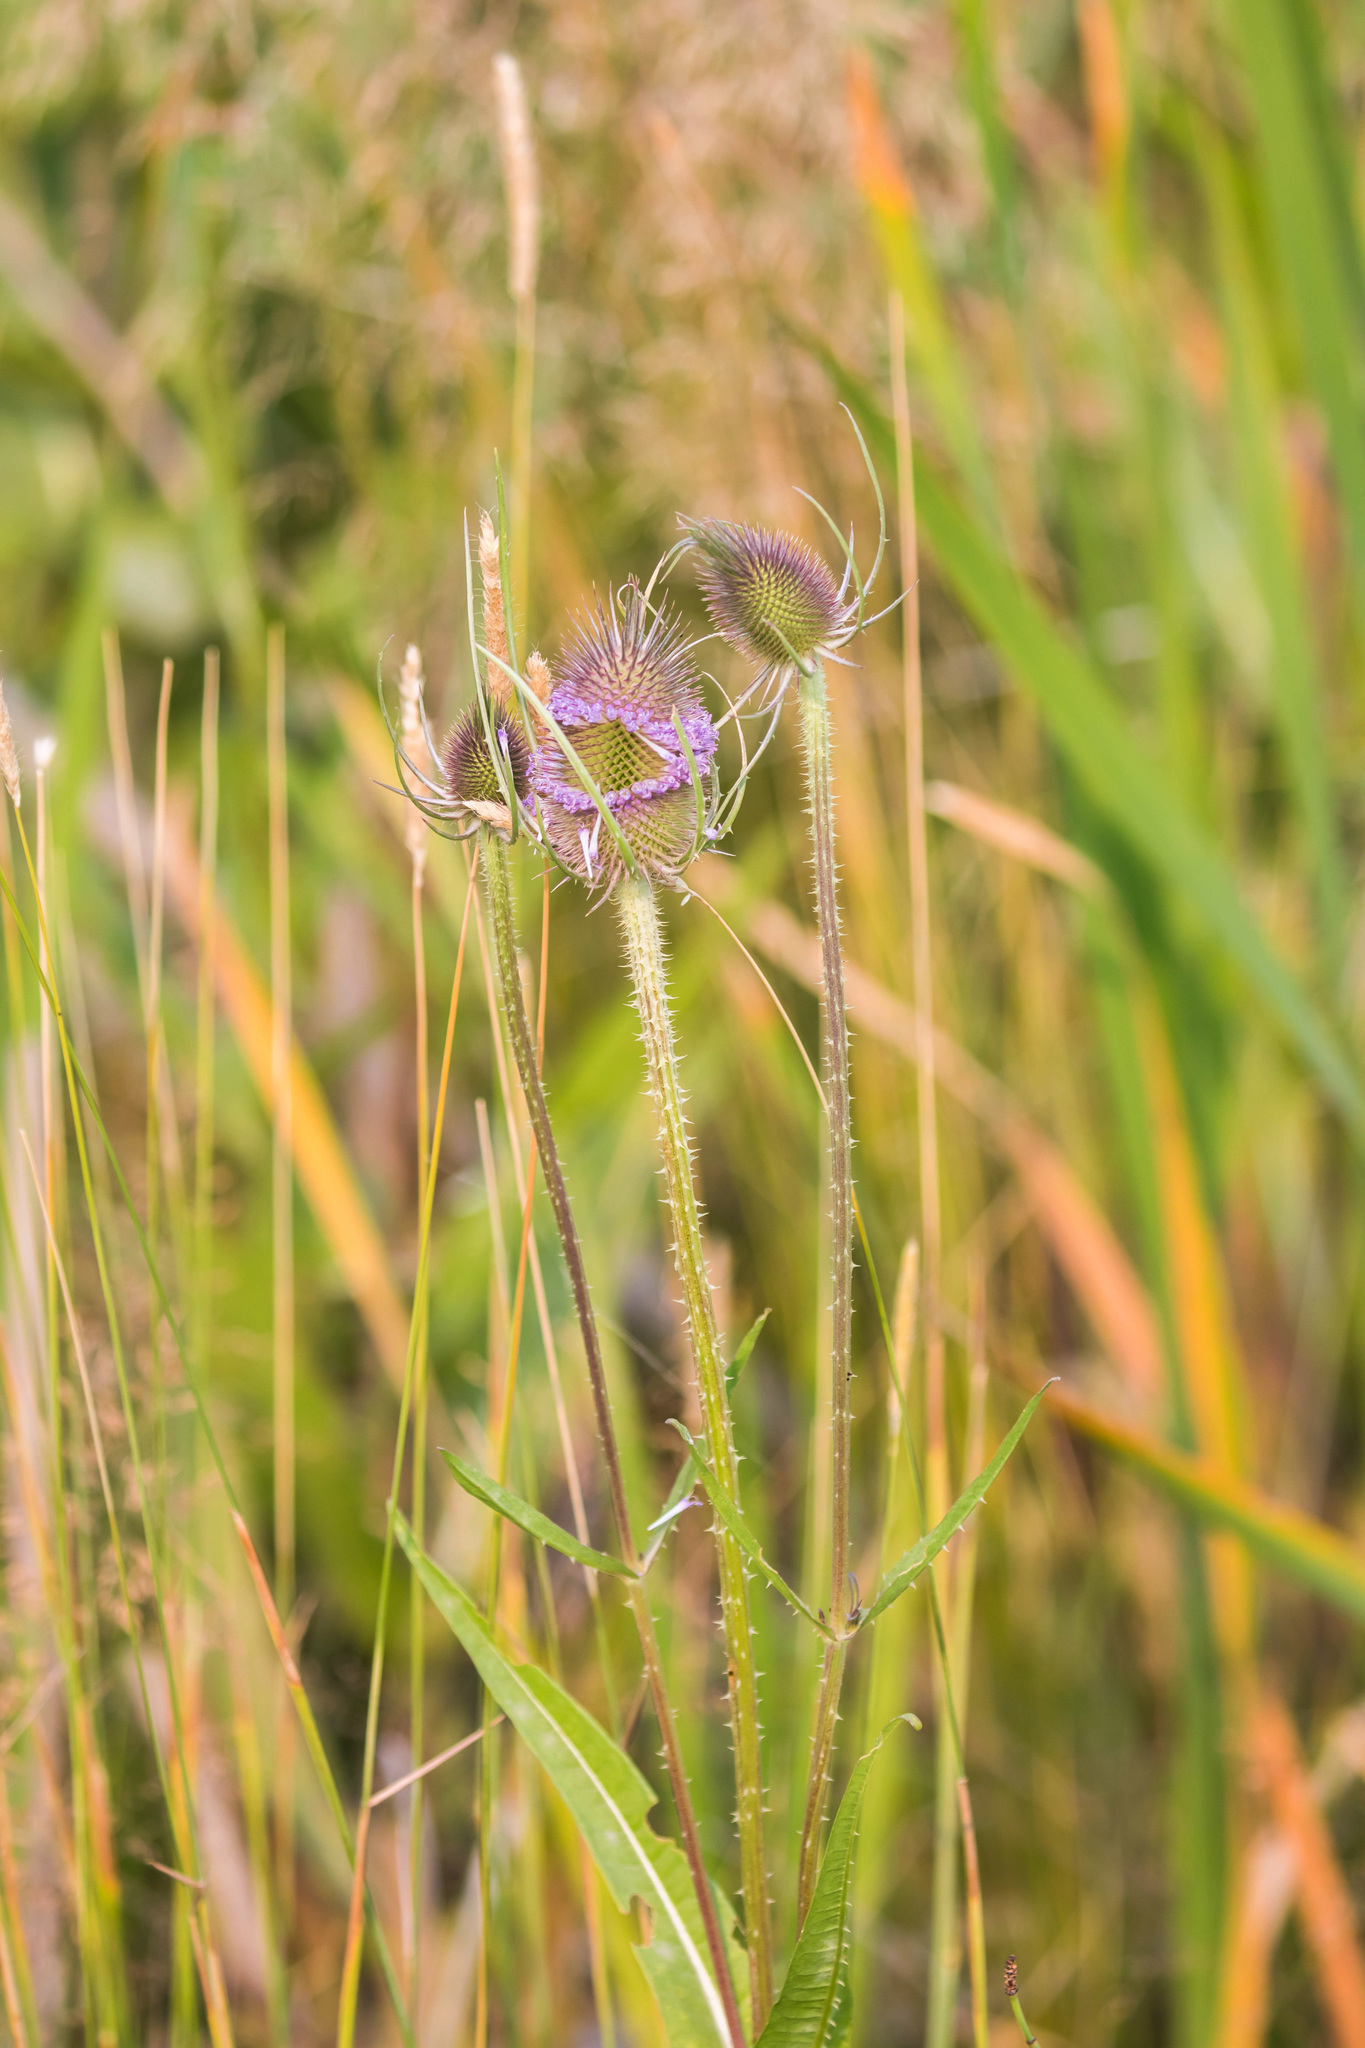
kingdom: Plantae
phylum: Tracheophyta
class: Magnoliopsida
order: Dipsacales
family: Caprifoliaceae
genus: Dipsacus
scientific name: Dipsacus fullonum
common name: Teasel
